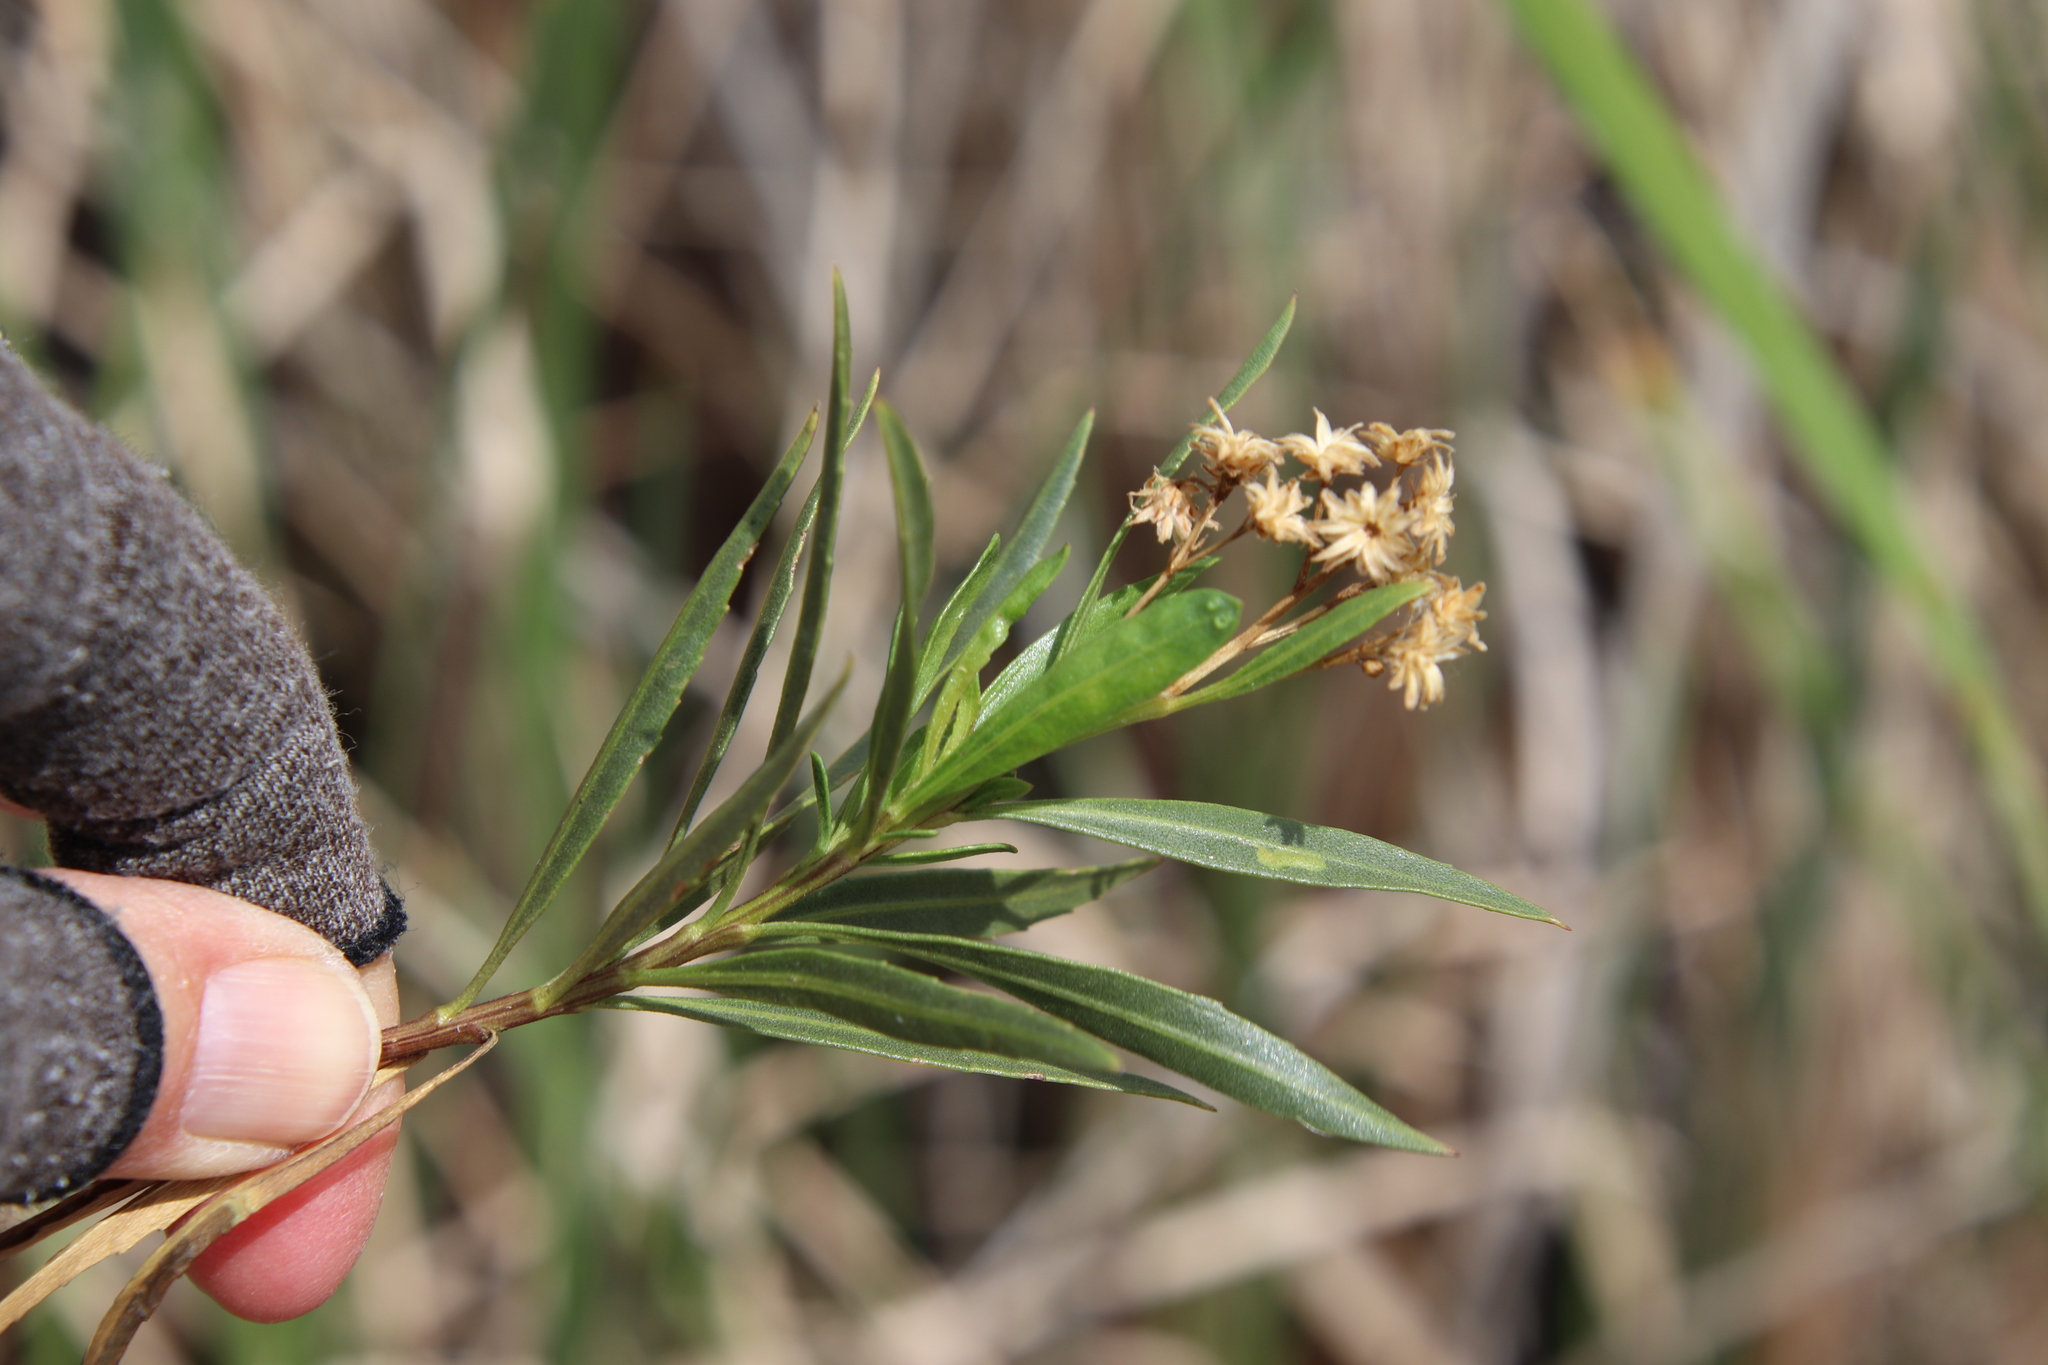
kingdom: Plantae
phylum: Tracheophyta
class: Magnoliopsida
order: Asterales
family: Asteraceae
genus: Baccharis
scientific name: Baccharis salicifolia
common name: Sticky baccharis
